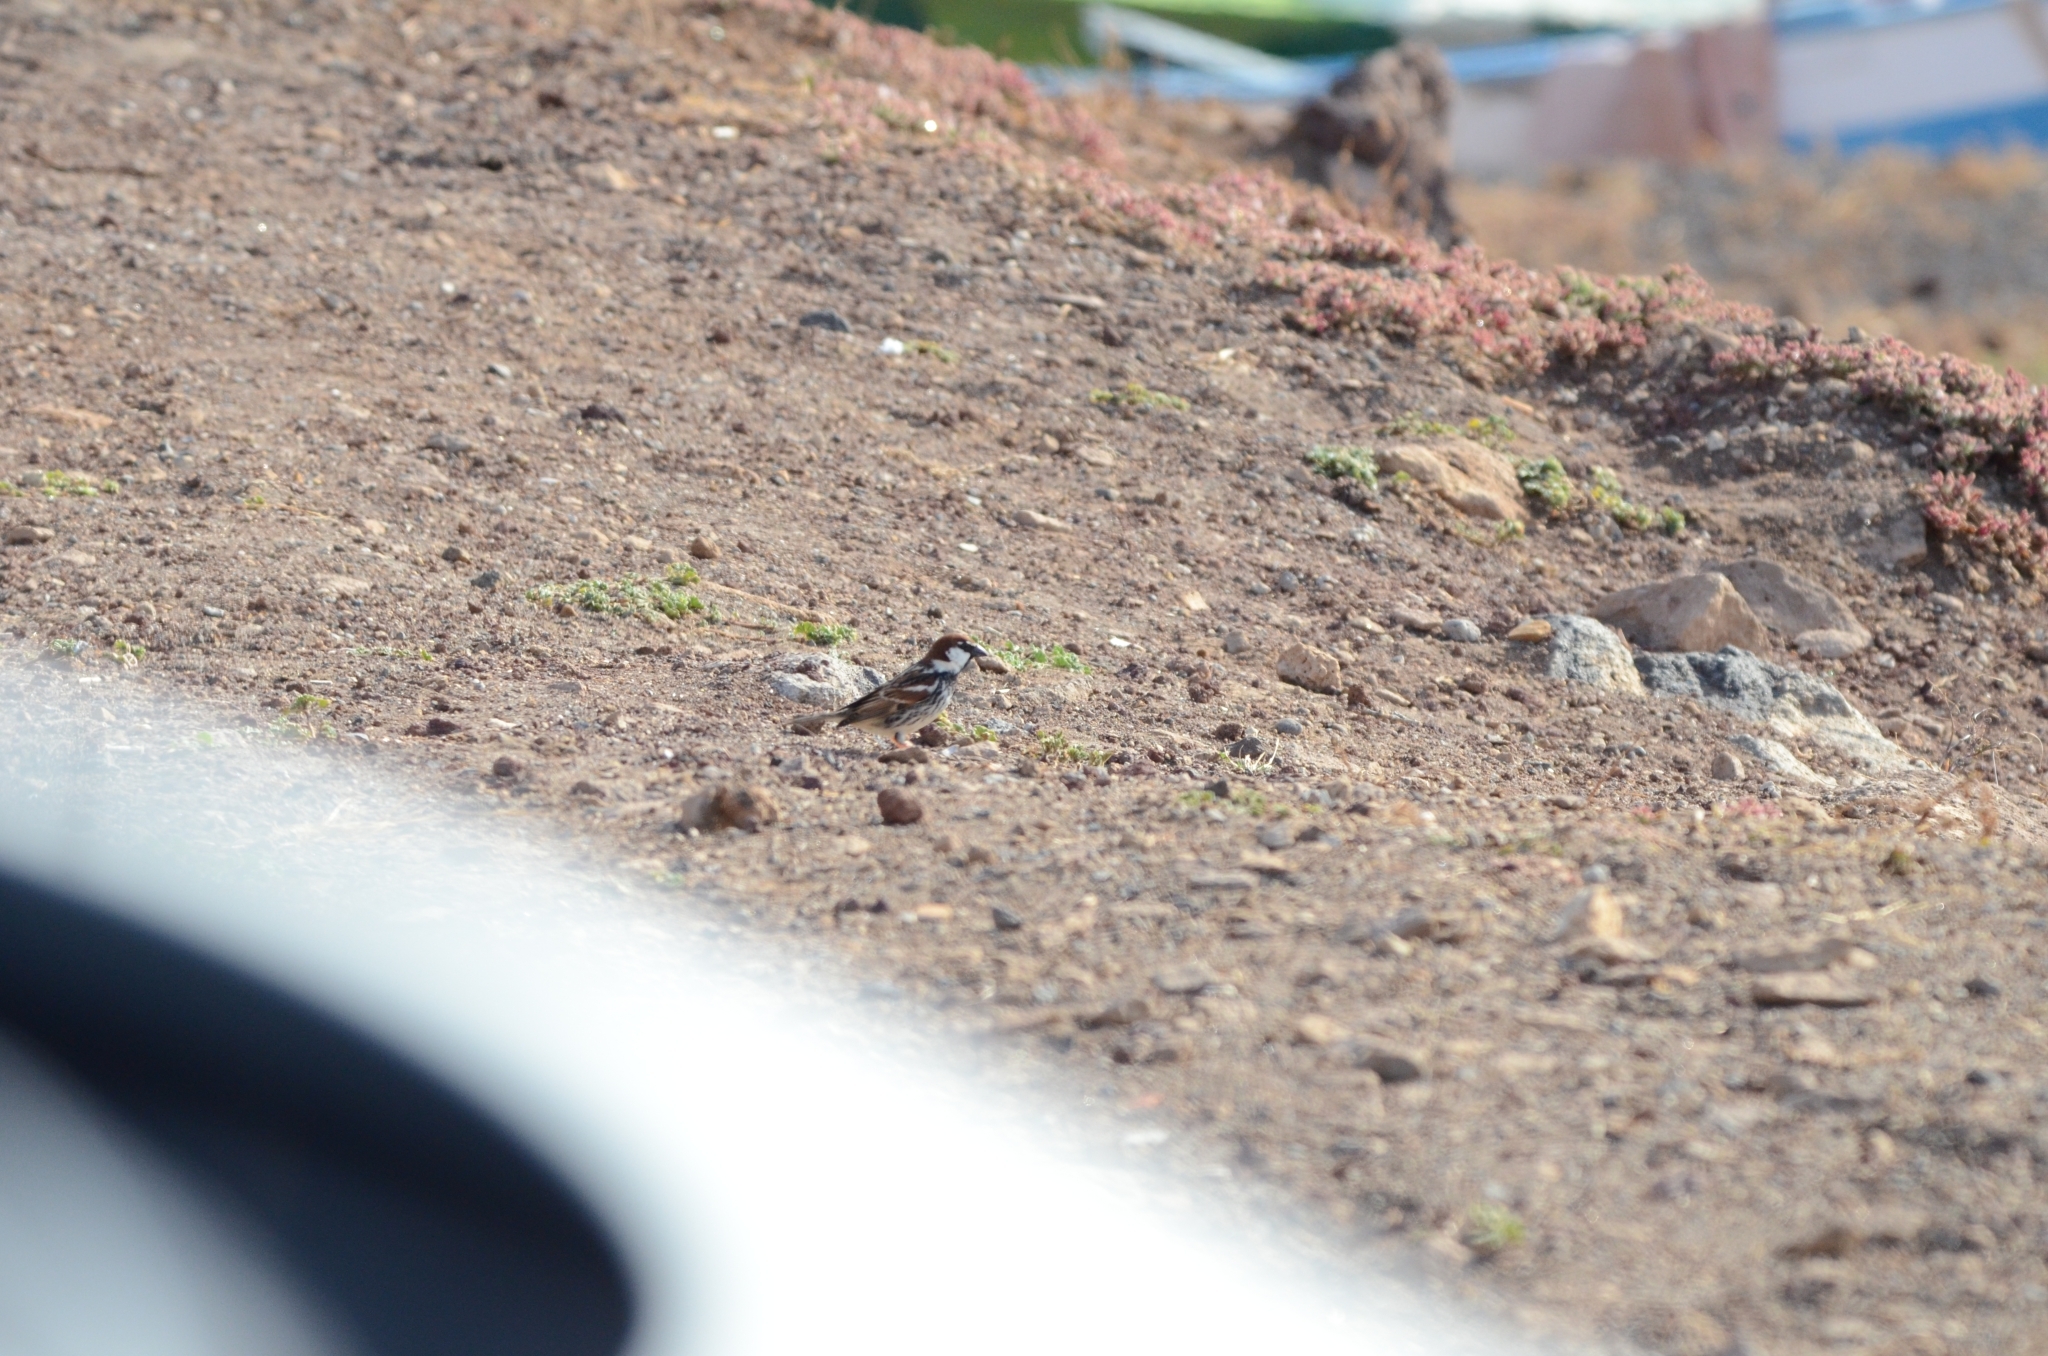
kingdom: Animalia
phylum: Chordata
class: Aves
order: Passeriformes
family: Passeridae
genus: Passer
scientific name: Passer hispaniolensis
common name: Spanish sparrow
